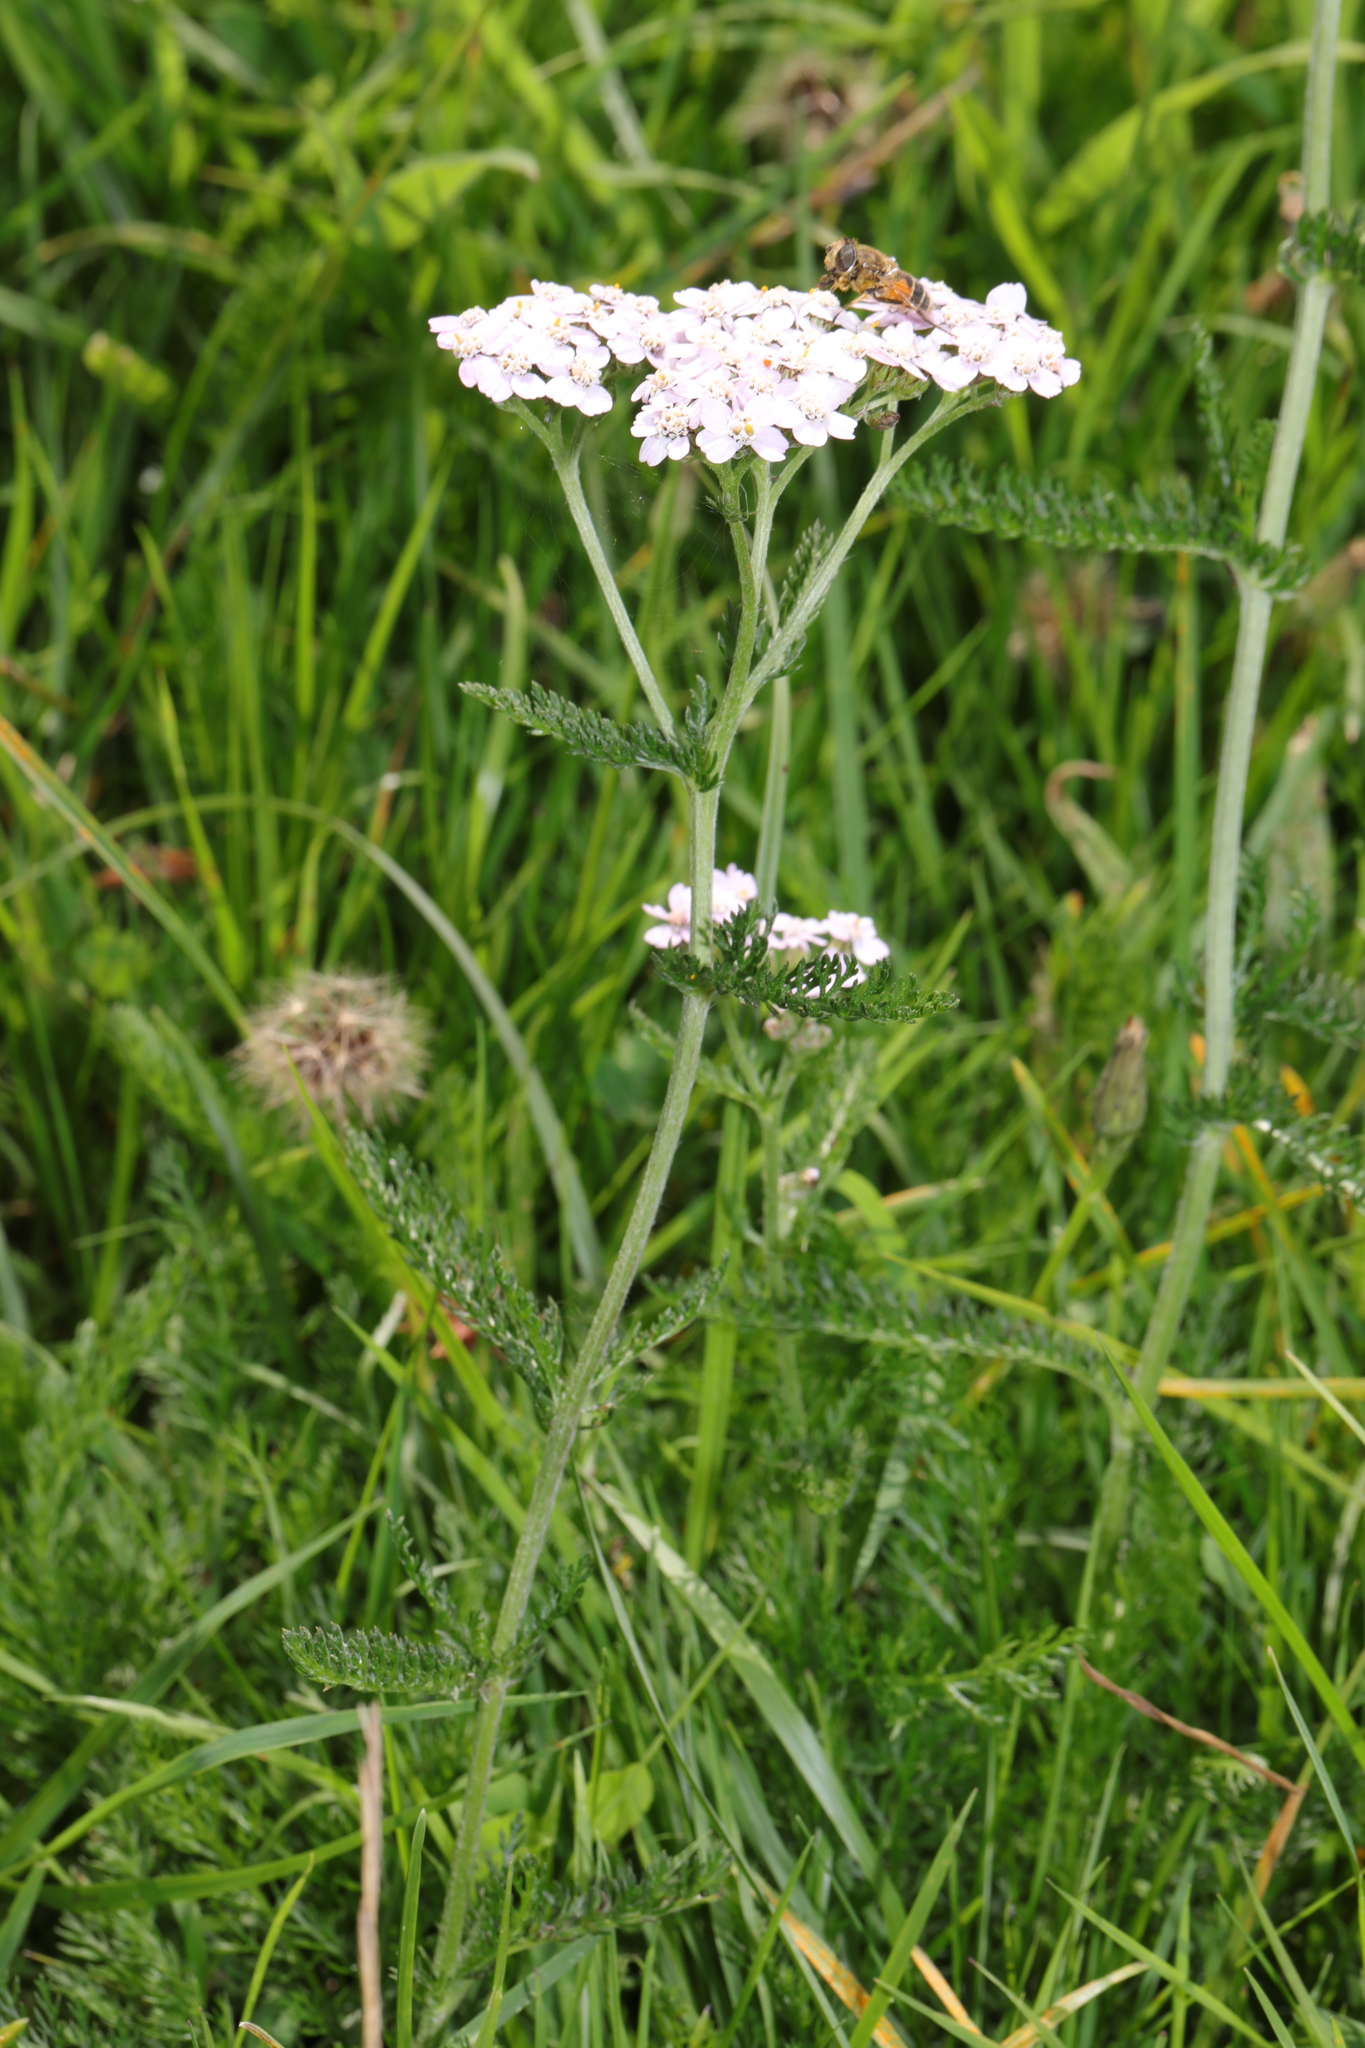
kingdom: Plantae
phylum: Tracheophyta
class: Magnoliopsida
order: Asterales
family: Asteraceae
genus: Achillea
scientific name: Achillea millefolium
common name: Yarrow
